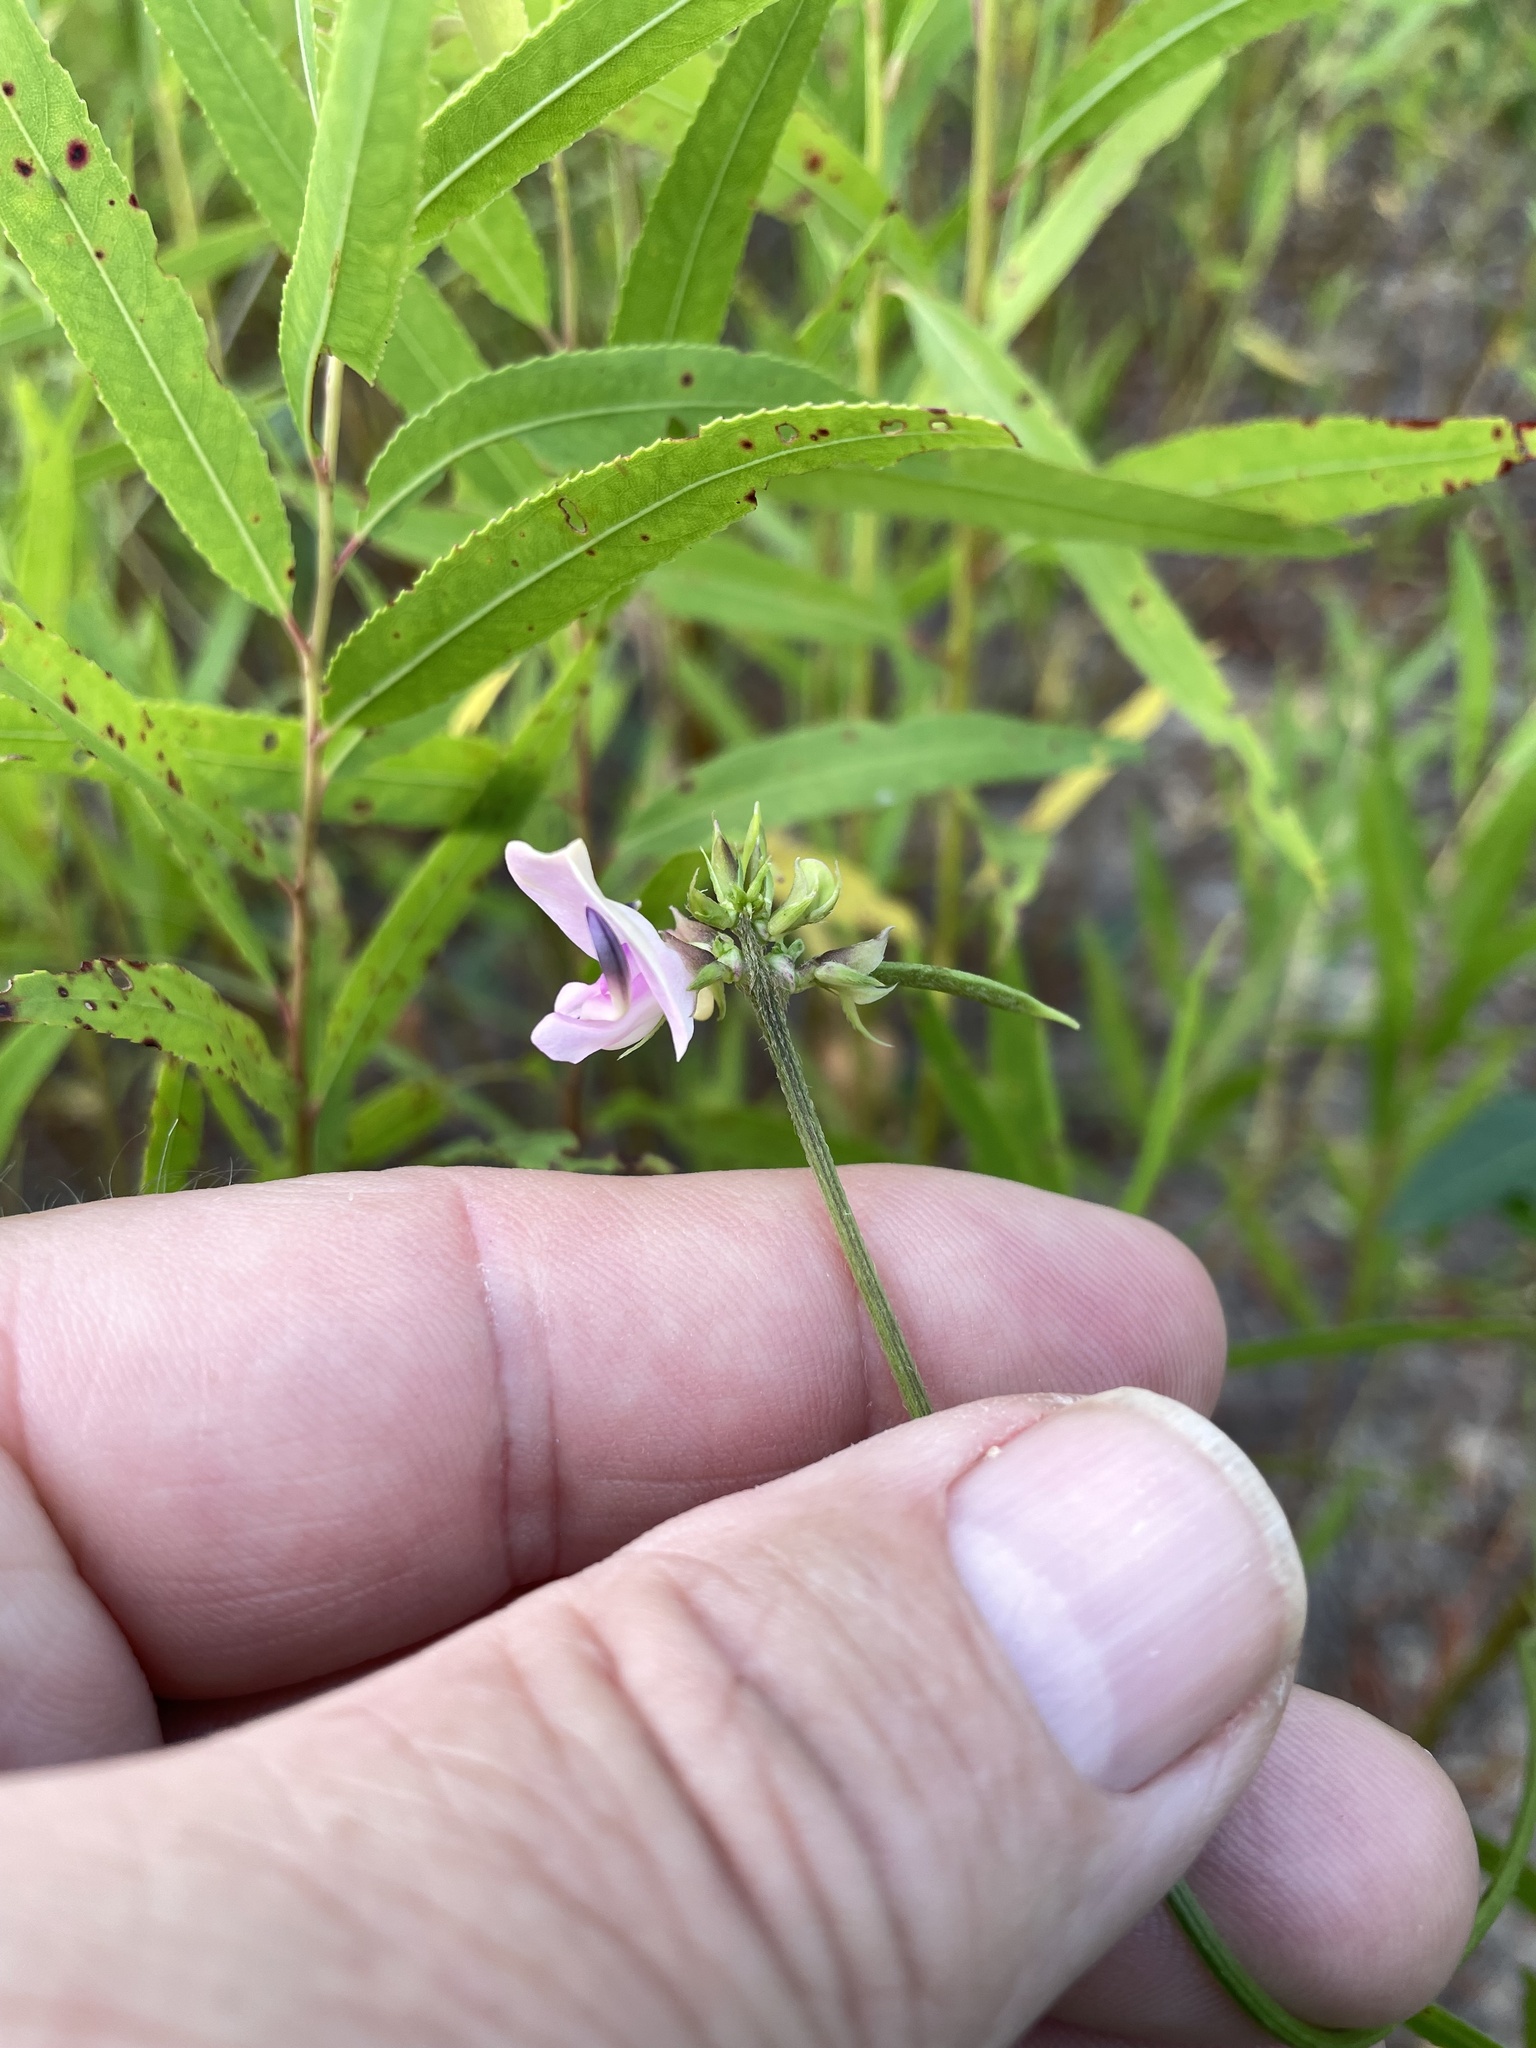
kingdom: Plantae
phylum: Tracheophyta
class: Magnoliopsida
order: Fabales
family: Fabaceae
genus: Strophostyles
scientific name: Strophostyles helvola
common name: Trailing wild bean
